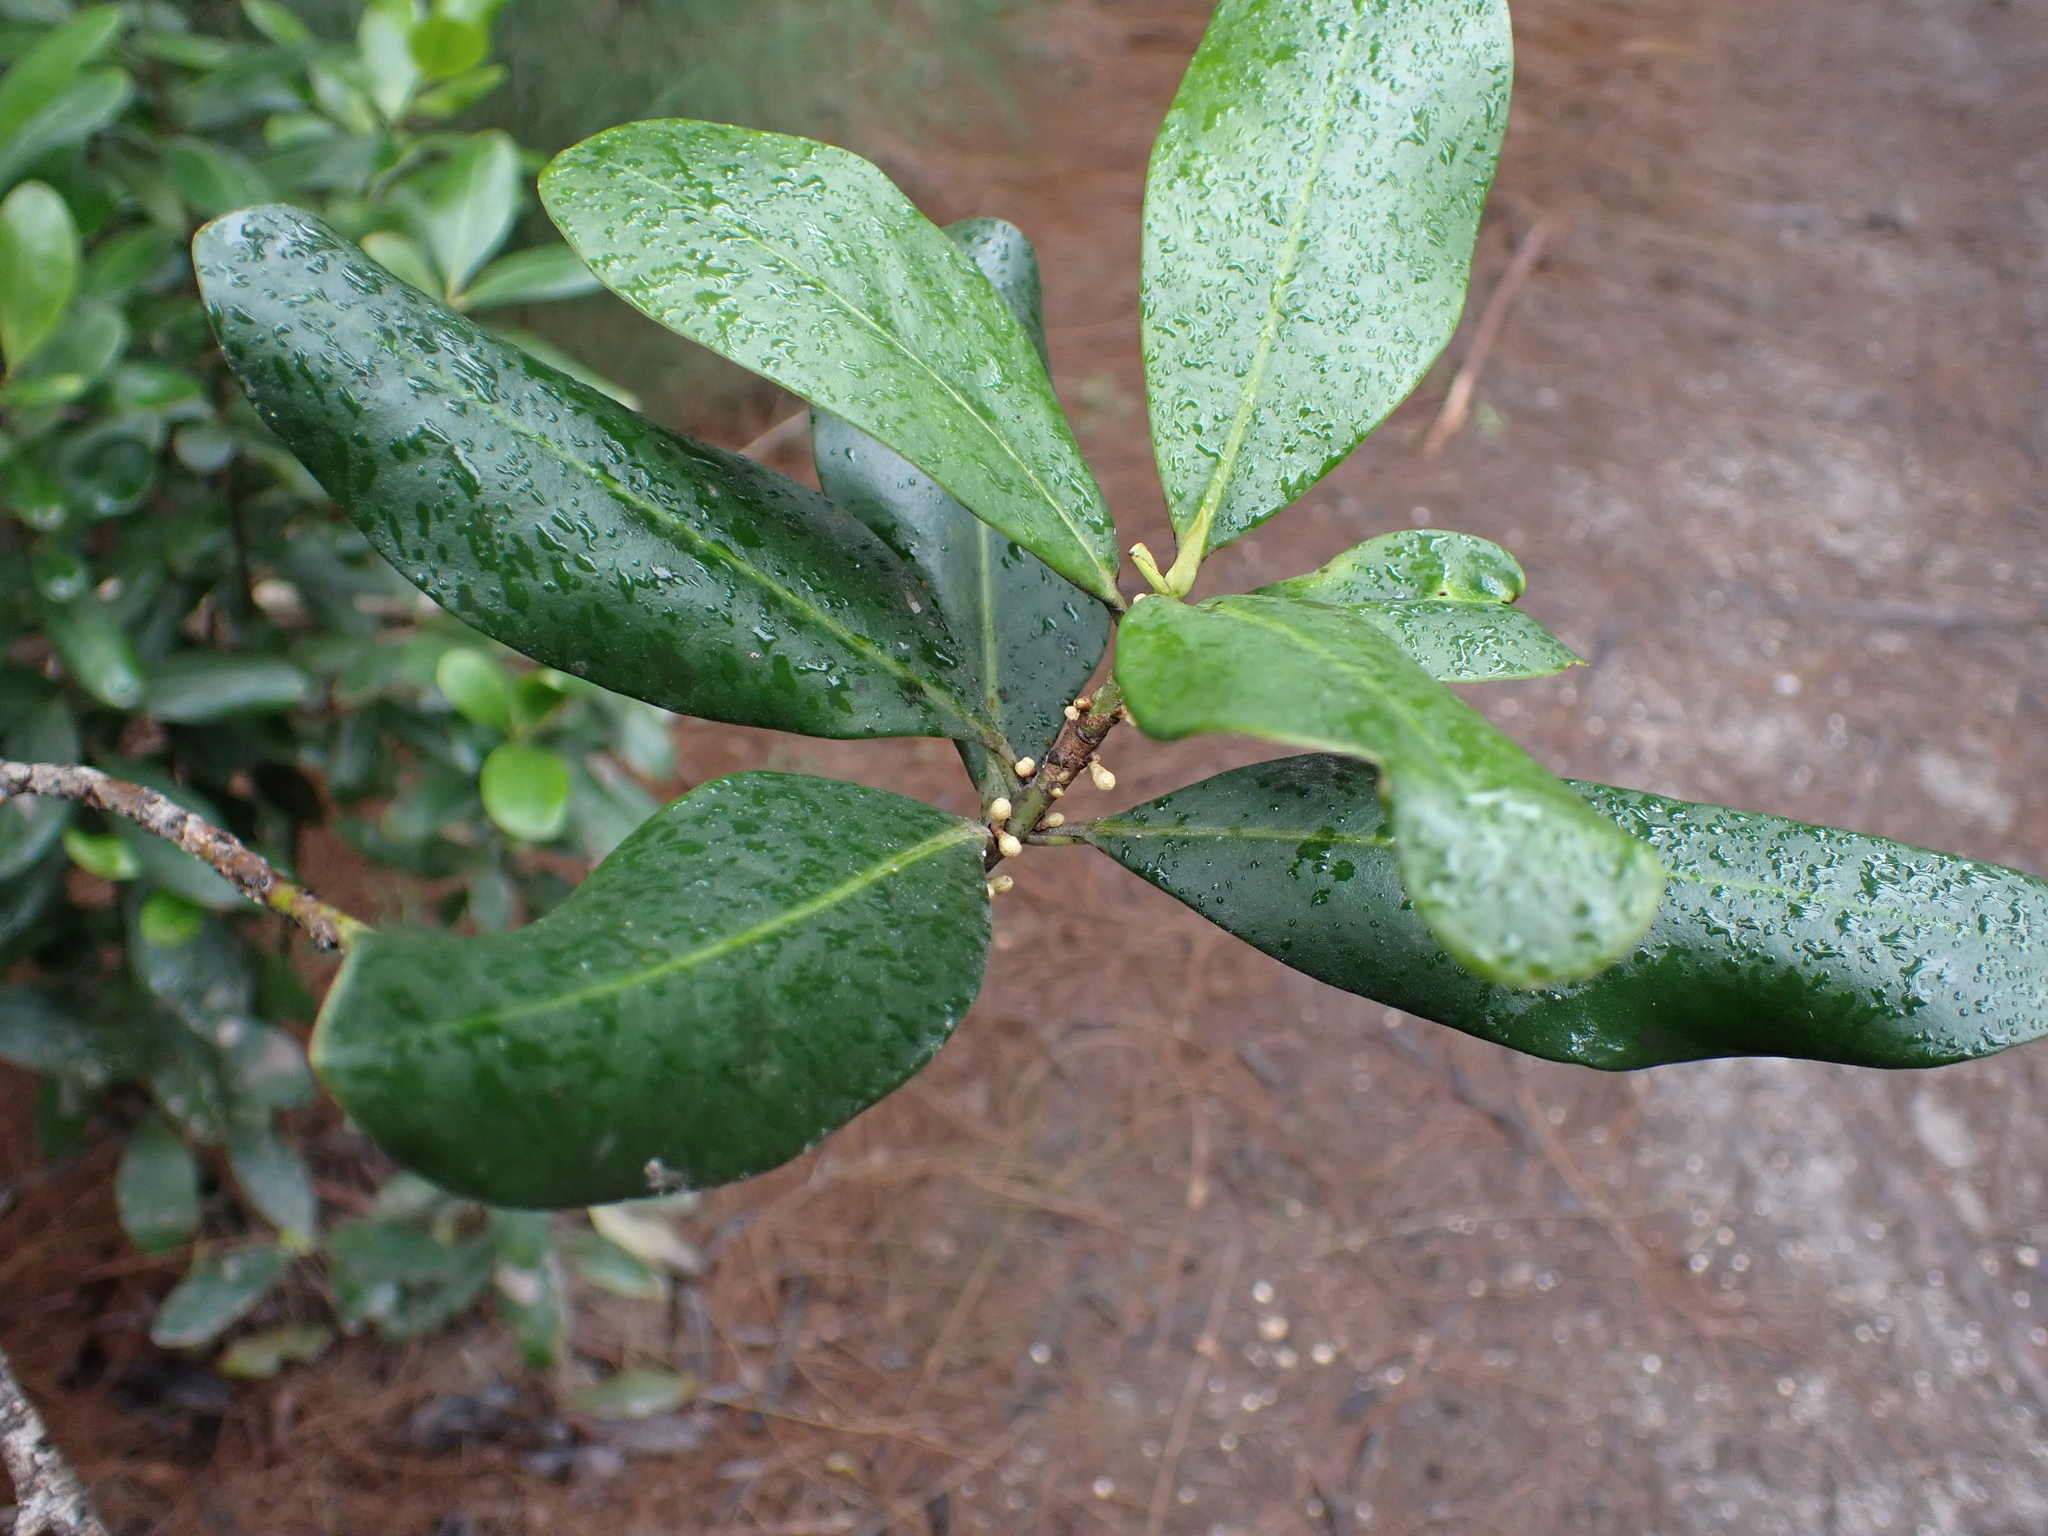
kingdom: Plantae
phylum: Tracheophyta
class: Magnoliopsida
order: Ericales
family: Primulaceae
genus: Myrsine
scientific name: Myrsine floridana
